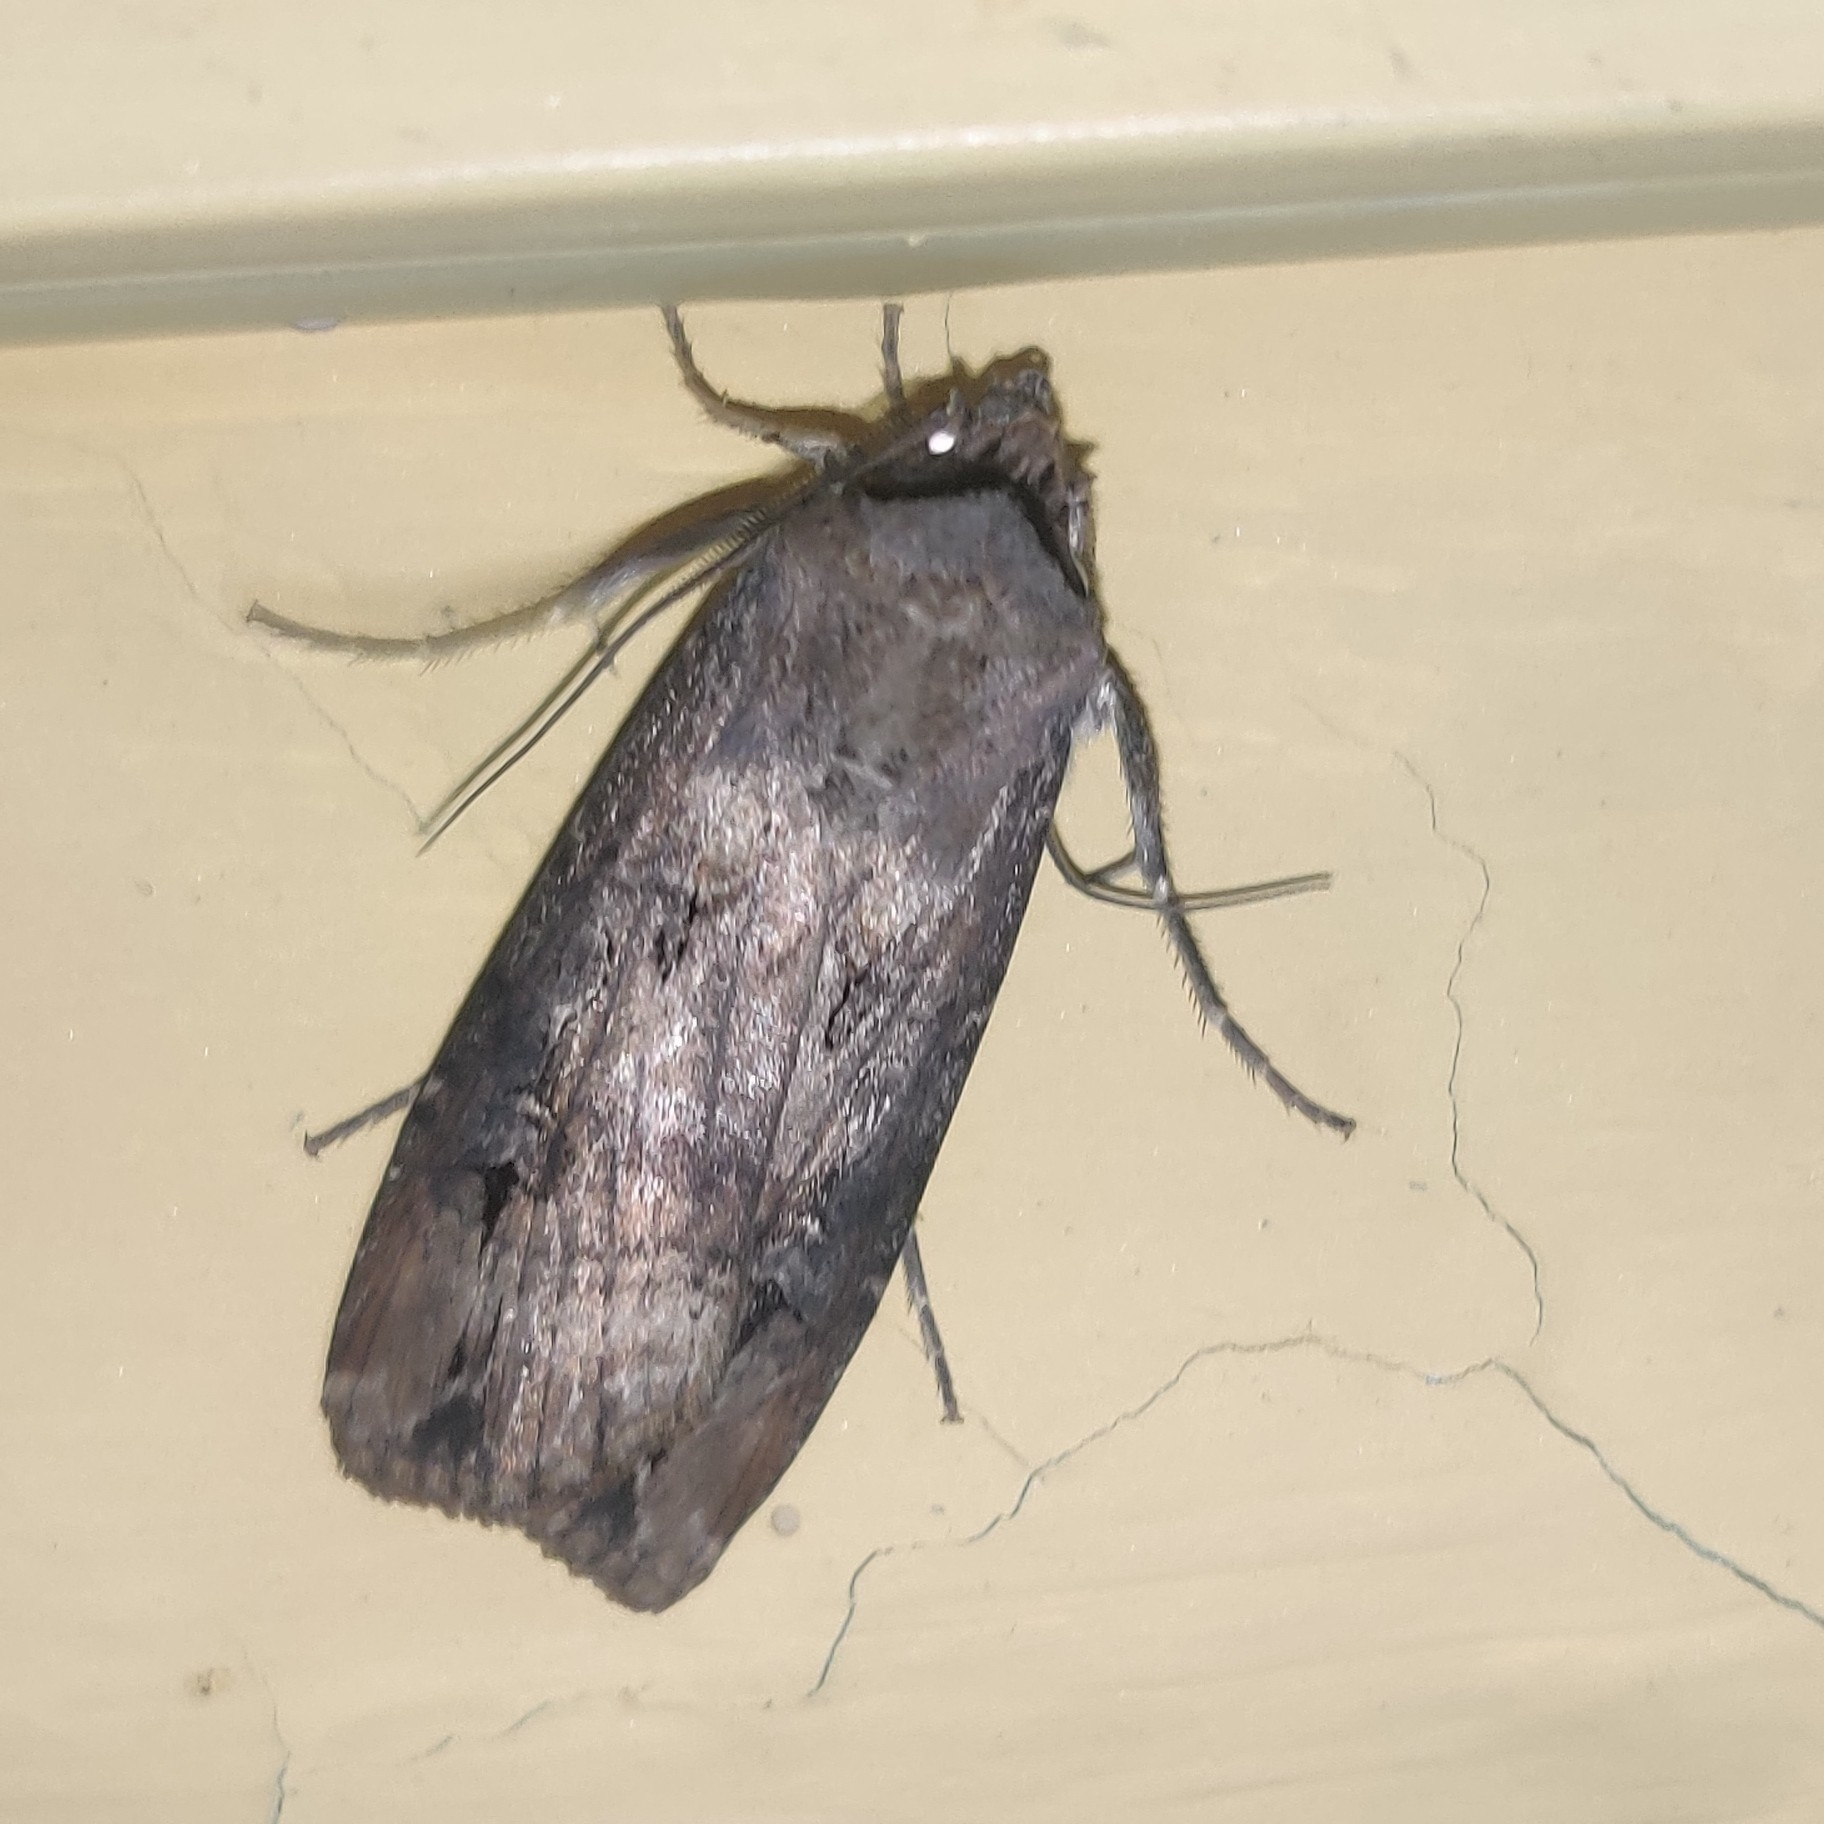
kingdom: Animalia
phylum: Arthropoda
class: Insecta
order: Lepidoptera
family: Noctuidae
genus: Agrotis
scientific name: Agrotis ipsilon
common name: Dark sword-grass
